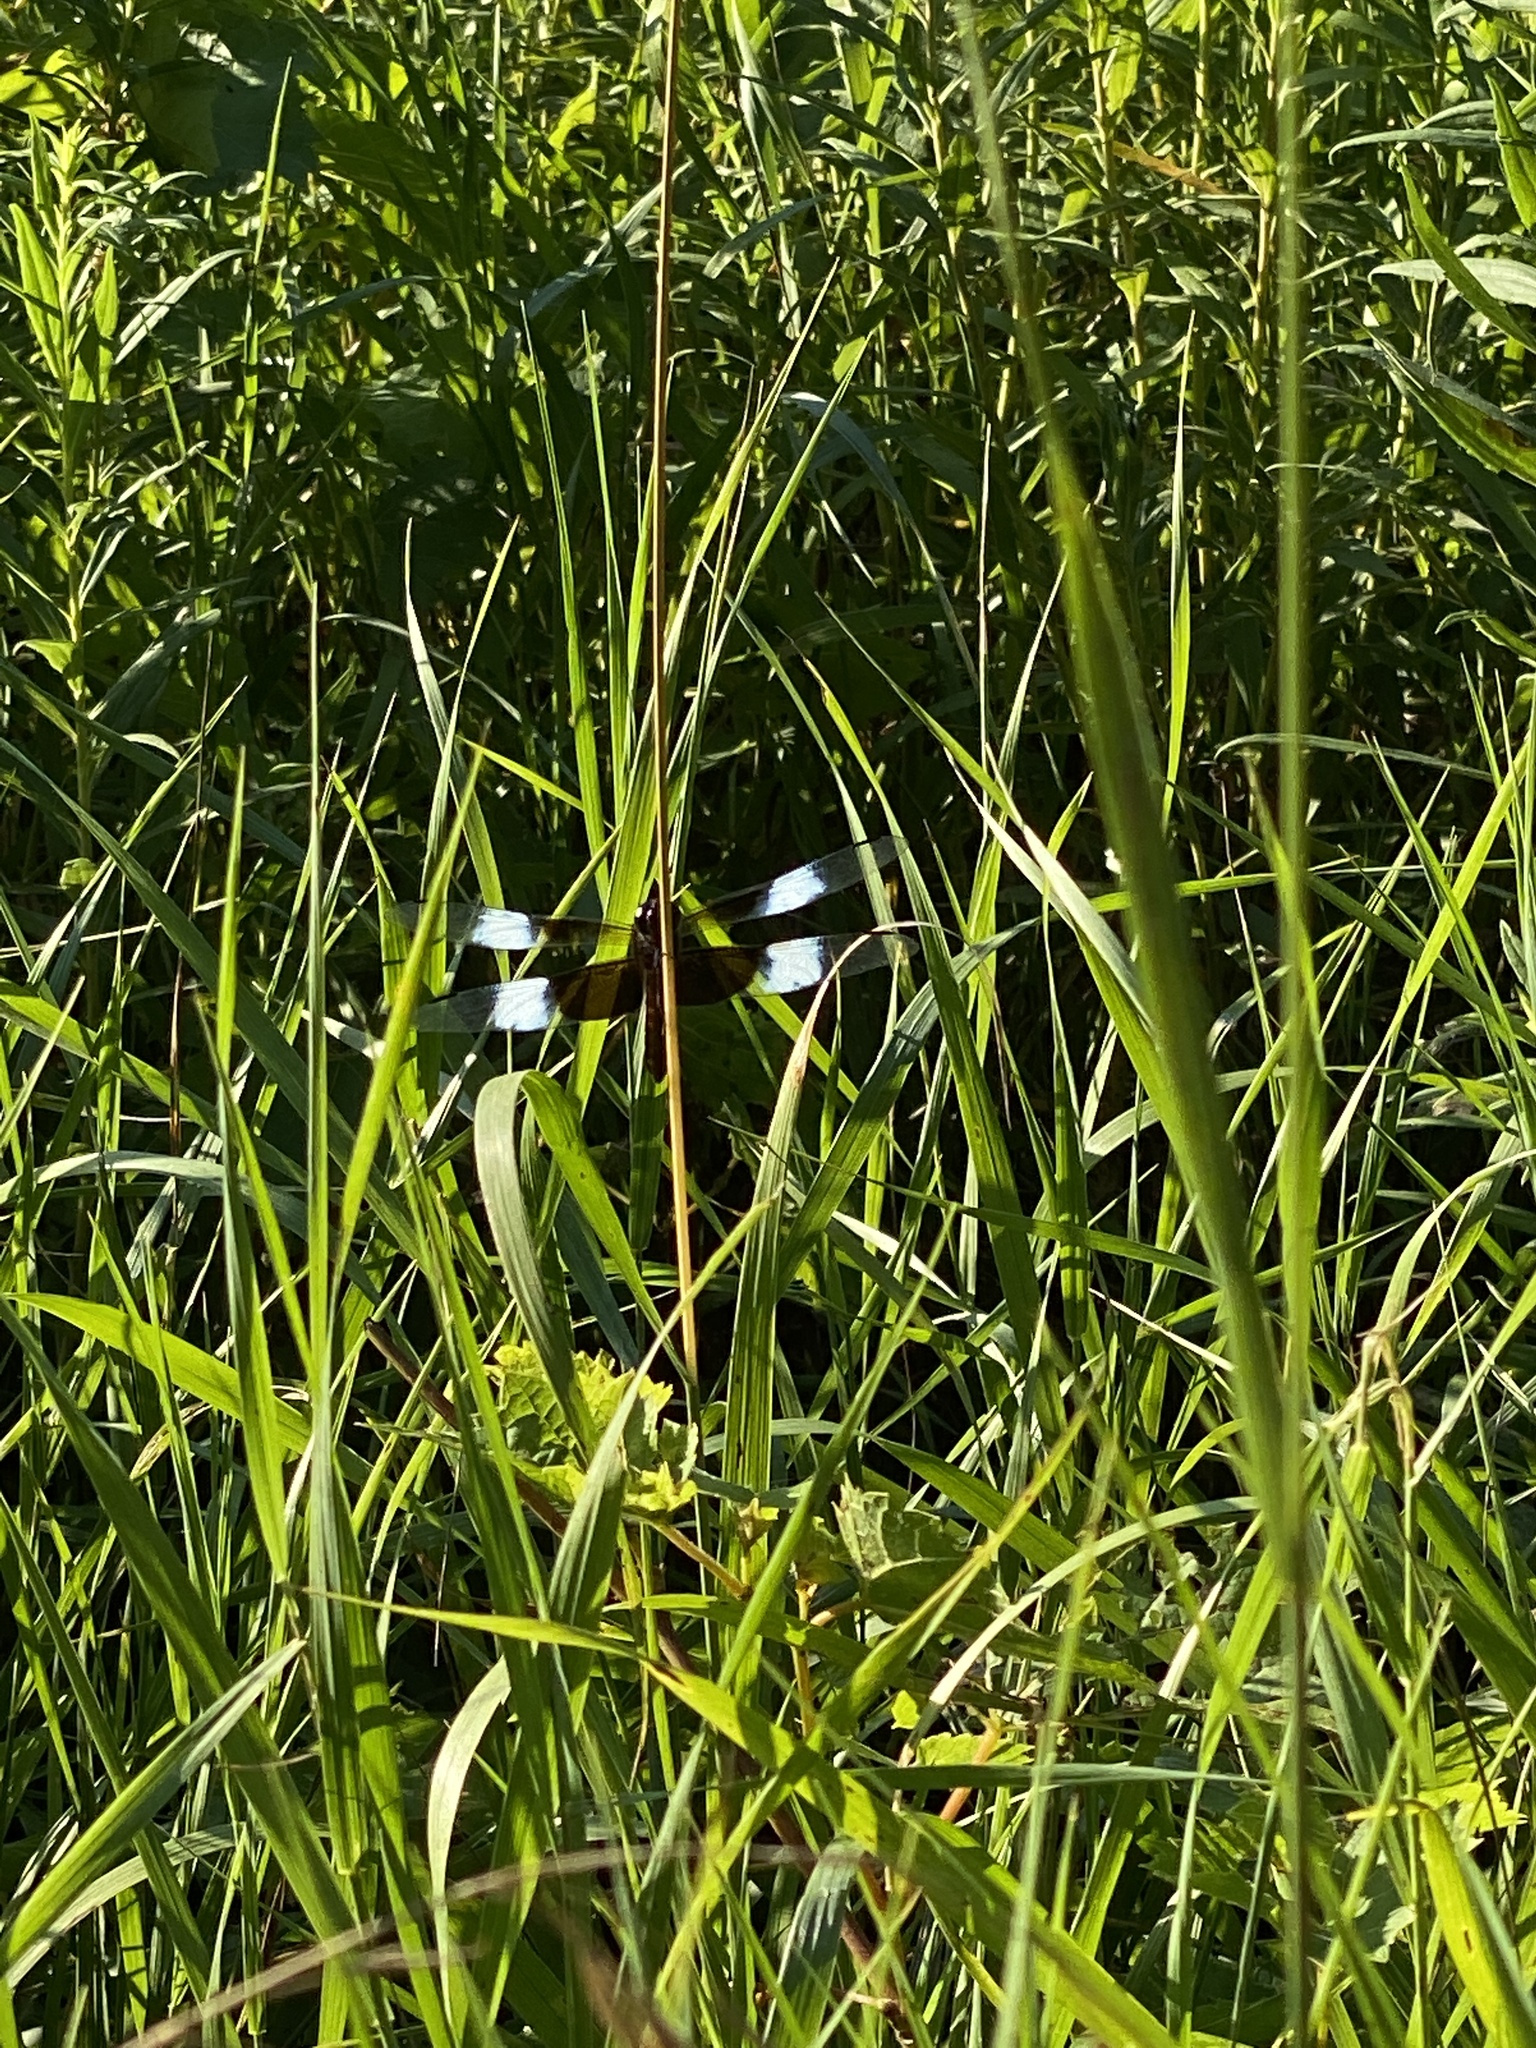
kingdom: Animalia
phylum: Arthropoda
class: Insecta
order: Odonata
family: Libellulidae
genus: Libellula
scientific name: Libellula luctuosa
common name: Widow skimmer
